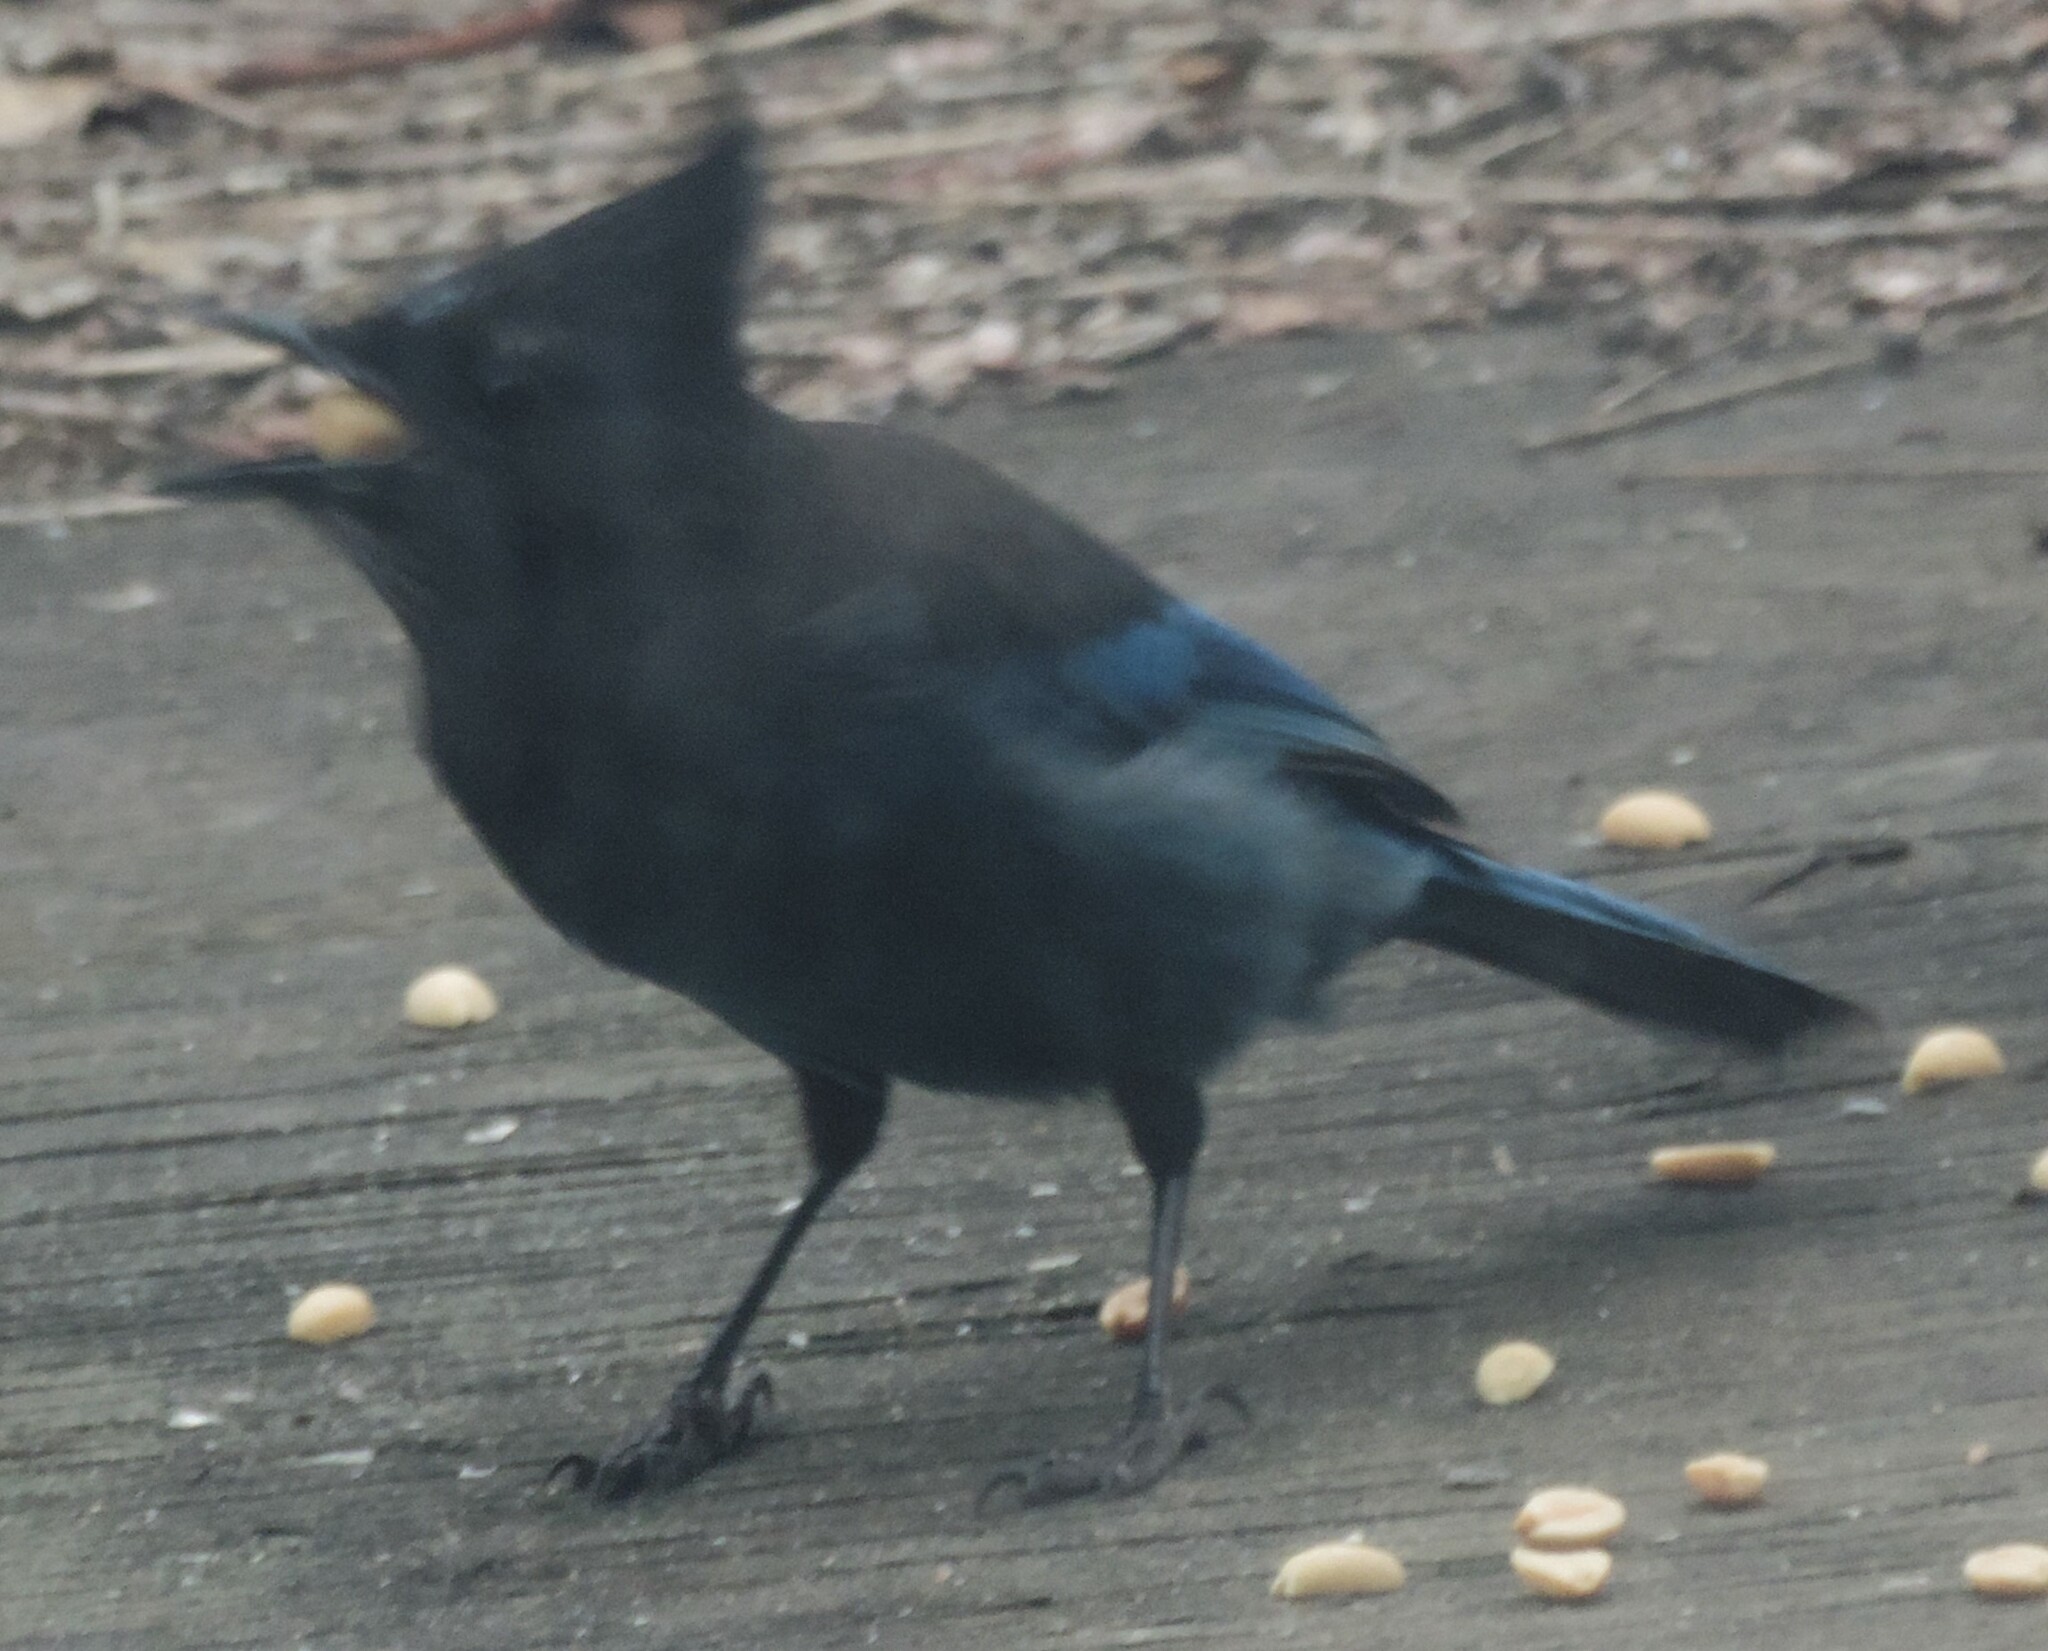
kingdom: Animalia
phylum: Chordata
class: Aves
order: Passeriformes
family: Corvidae
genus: Cyanocitta
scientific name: Cyanocitta stelleri
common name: Steller's jay
